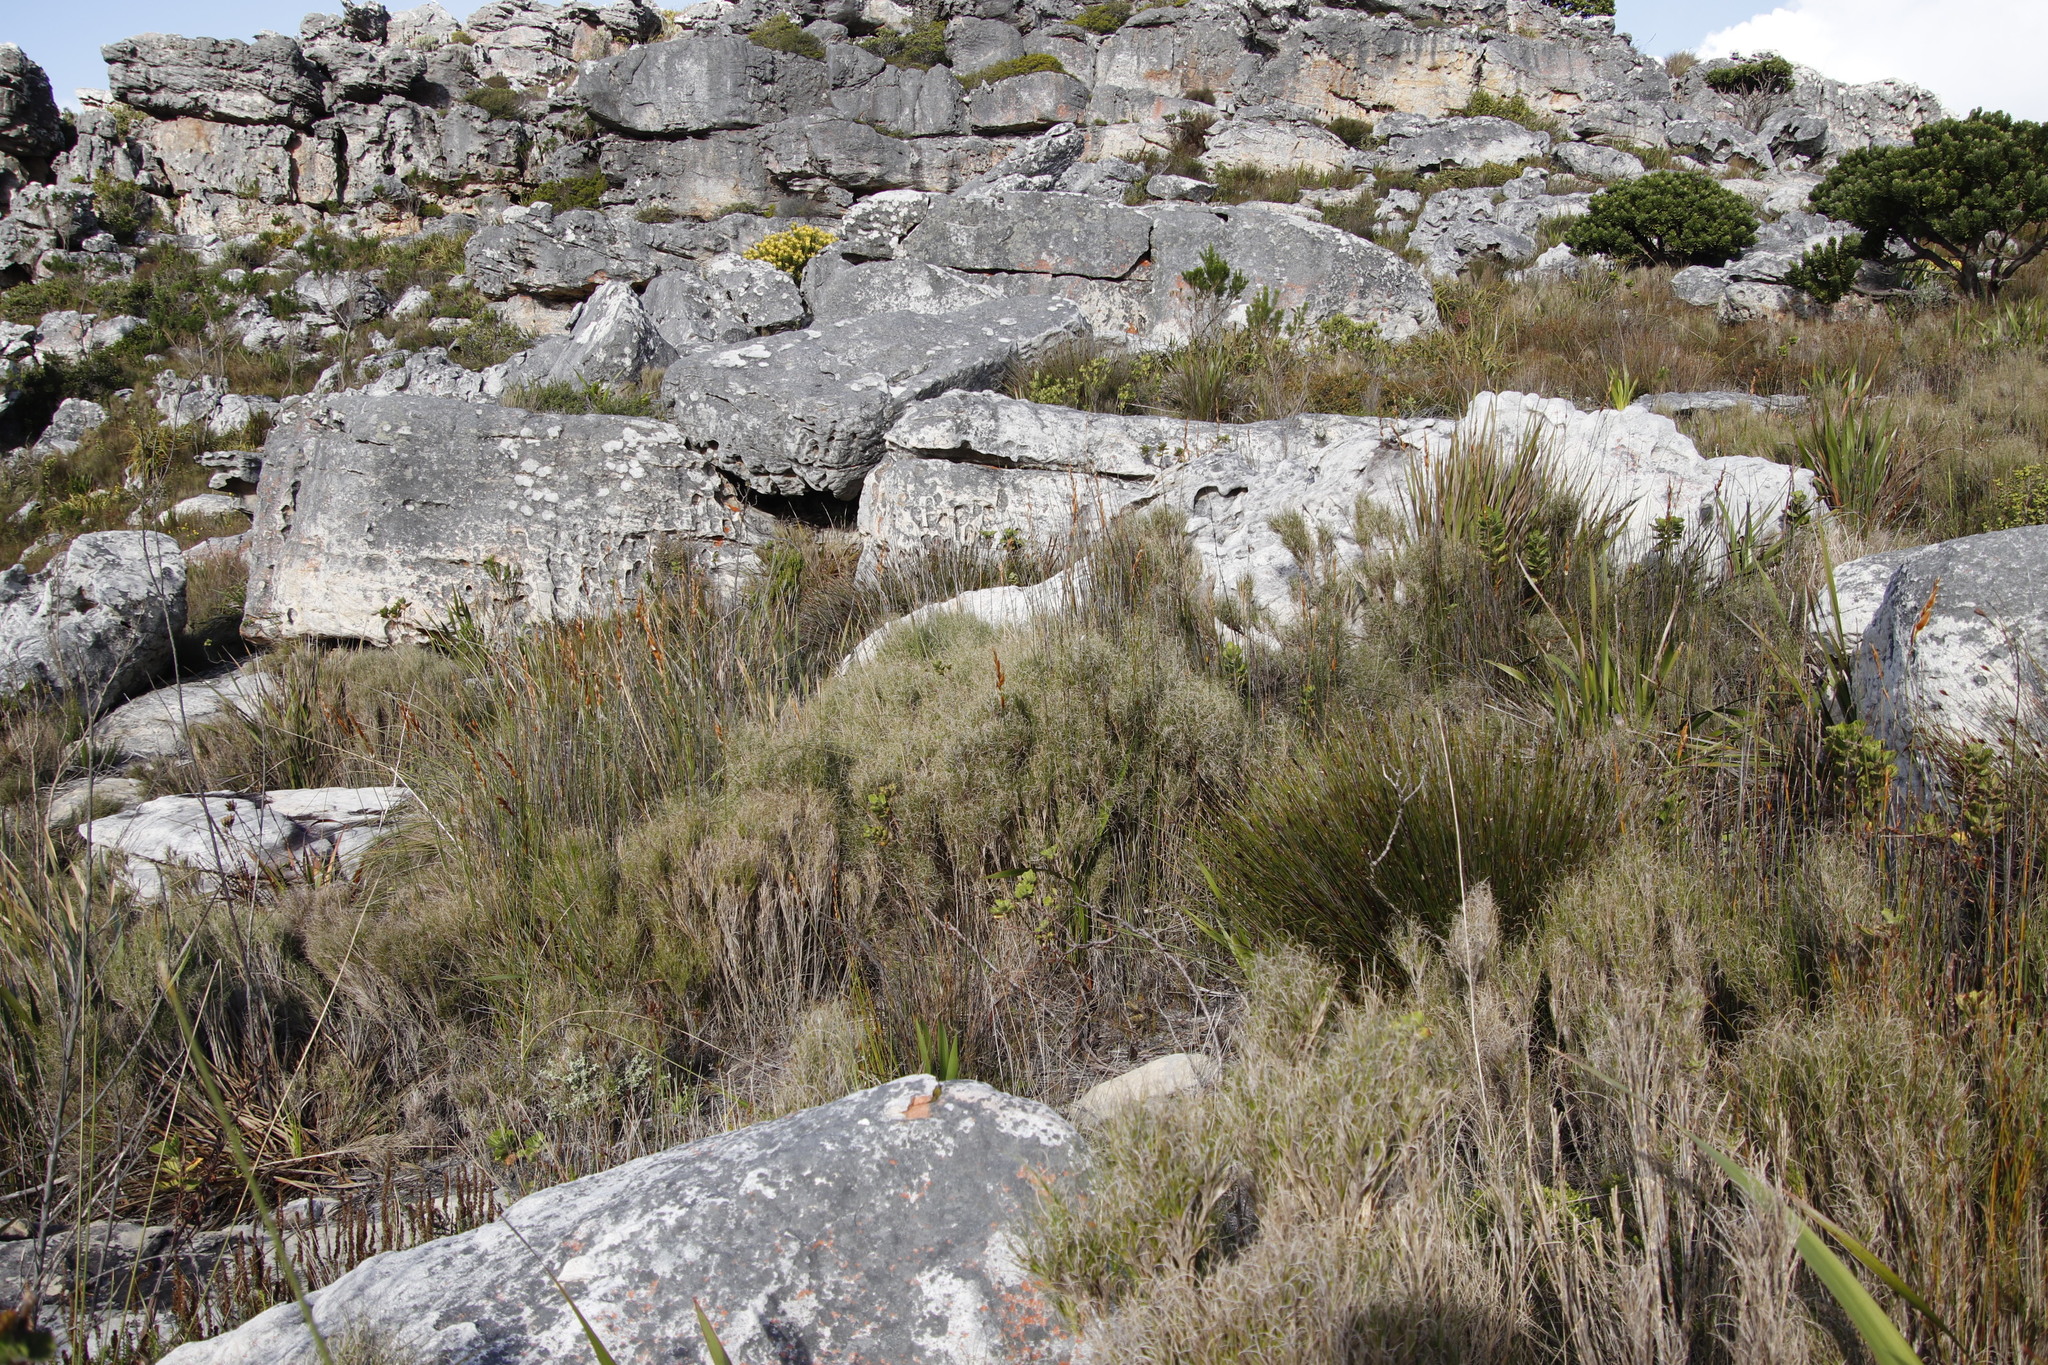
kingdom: Plantae
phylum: Tracheophyta
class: Liliopsida
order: Poales
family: Poaceae
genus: Pseudopentameris
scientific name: Pseudopentameris macrantha
